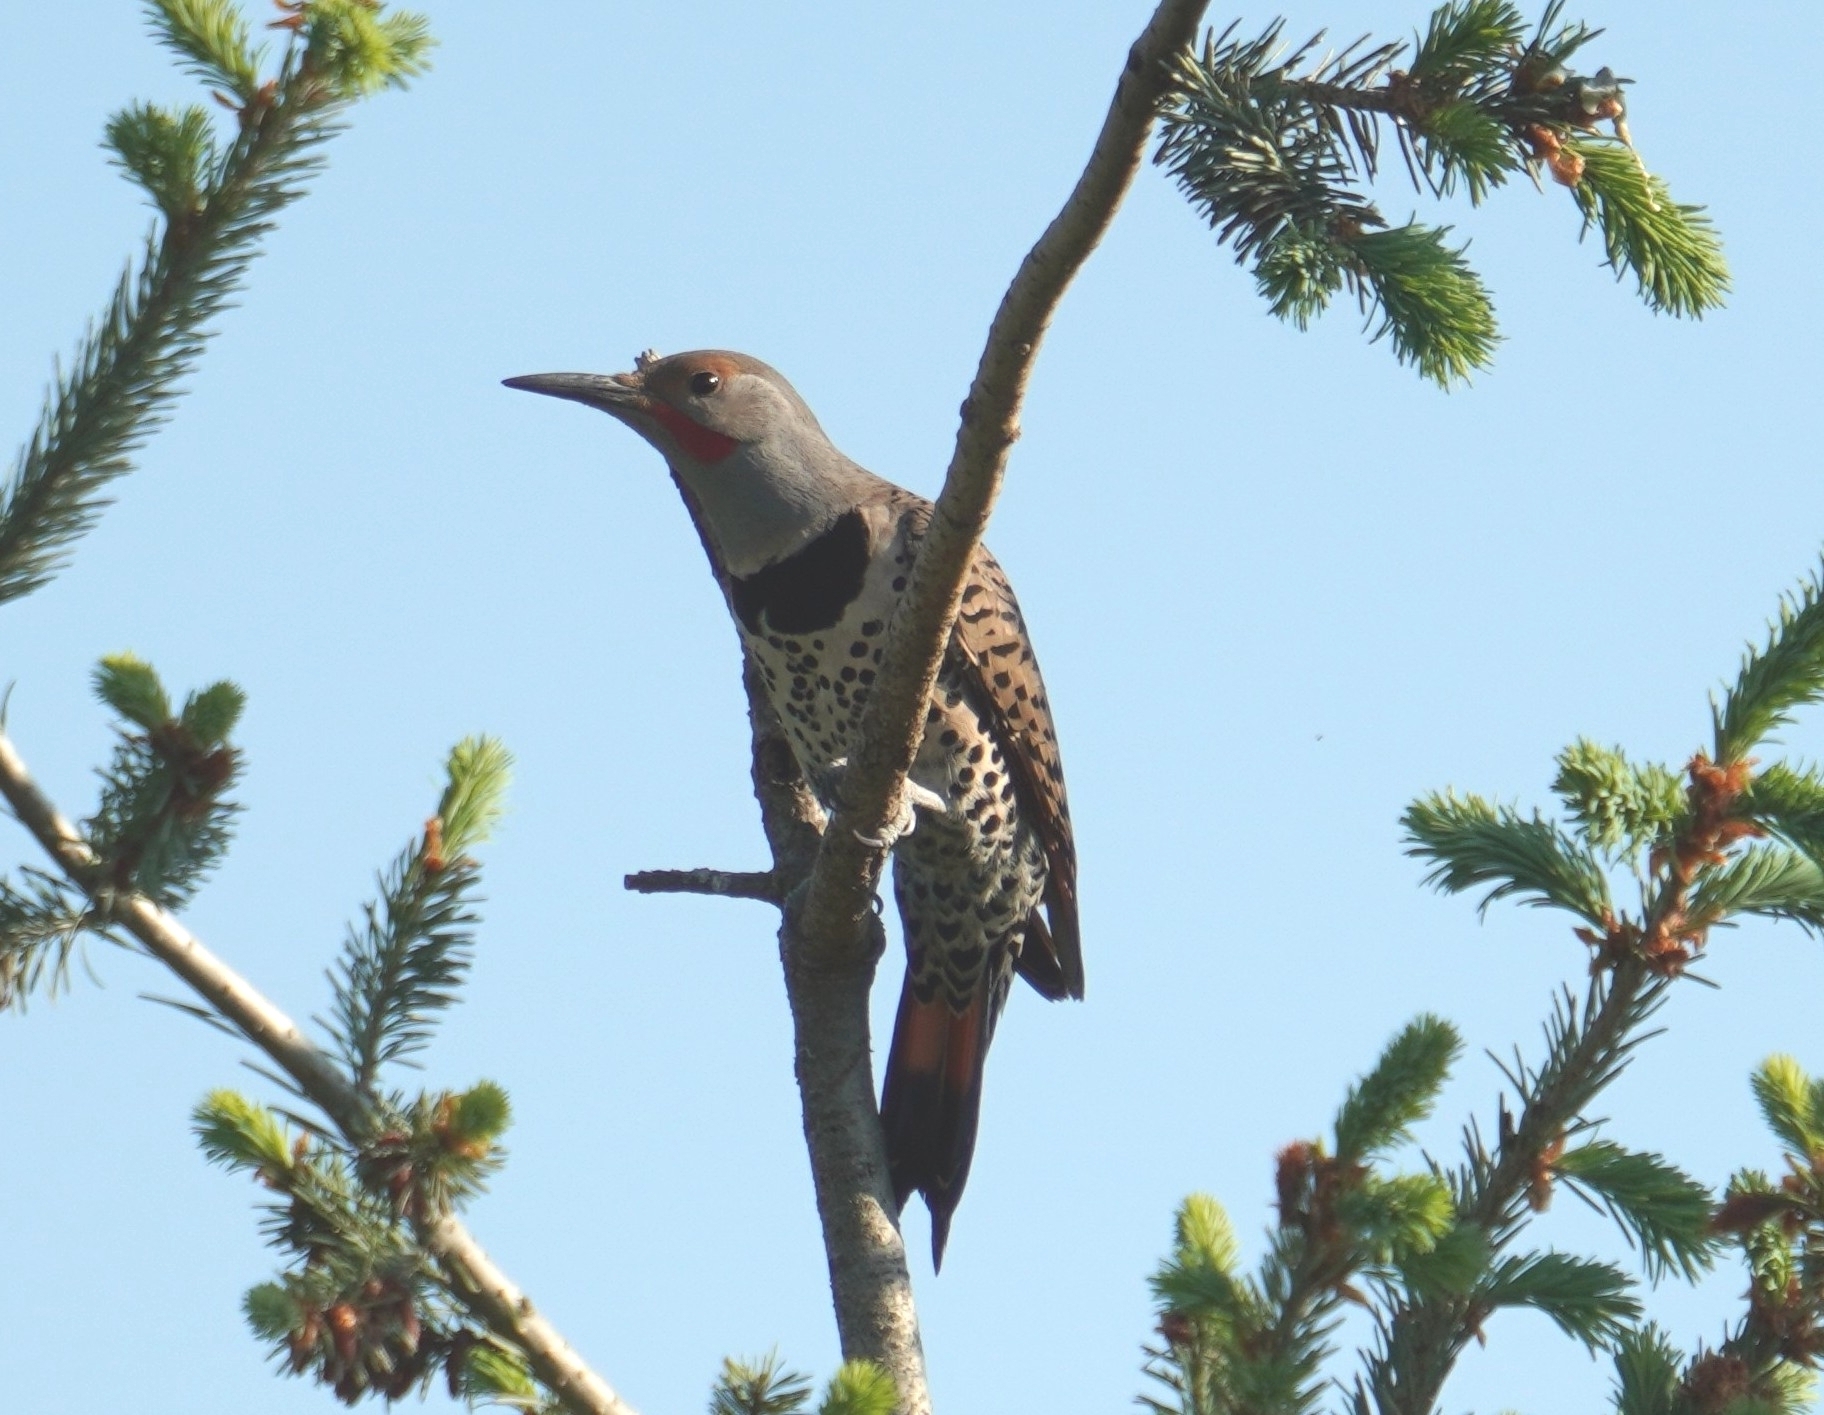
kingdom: Animalia
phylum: Chordata
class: Aves
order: Piciformes
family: Picidae
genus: Colaptes
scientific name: Colaptes auratus
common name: Northern flicker
